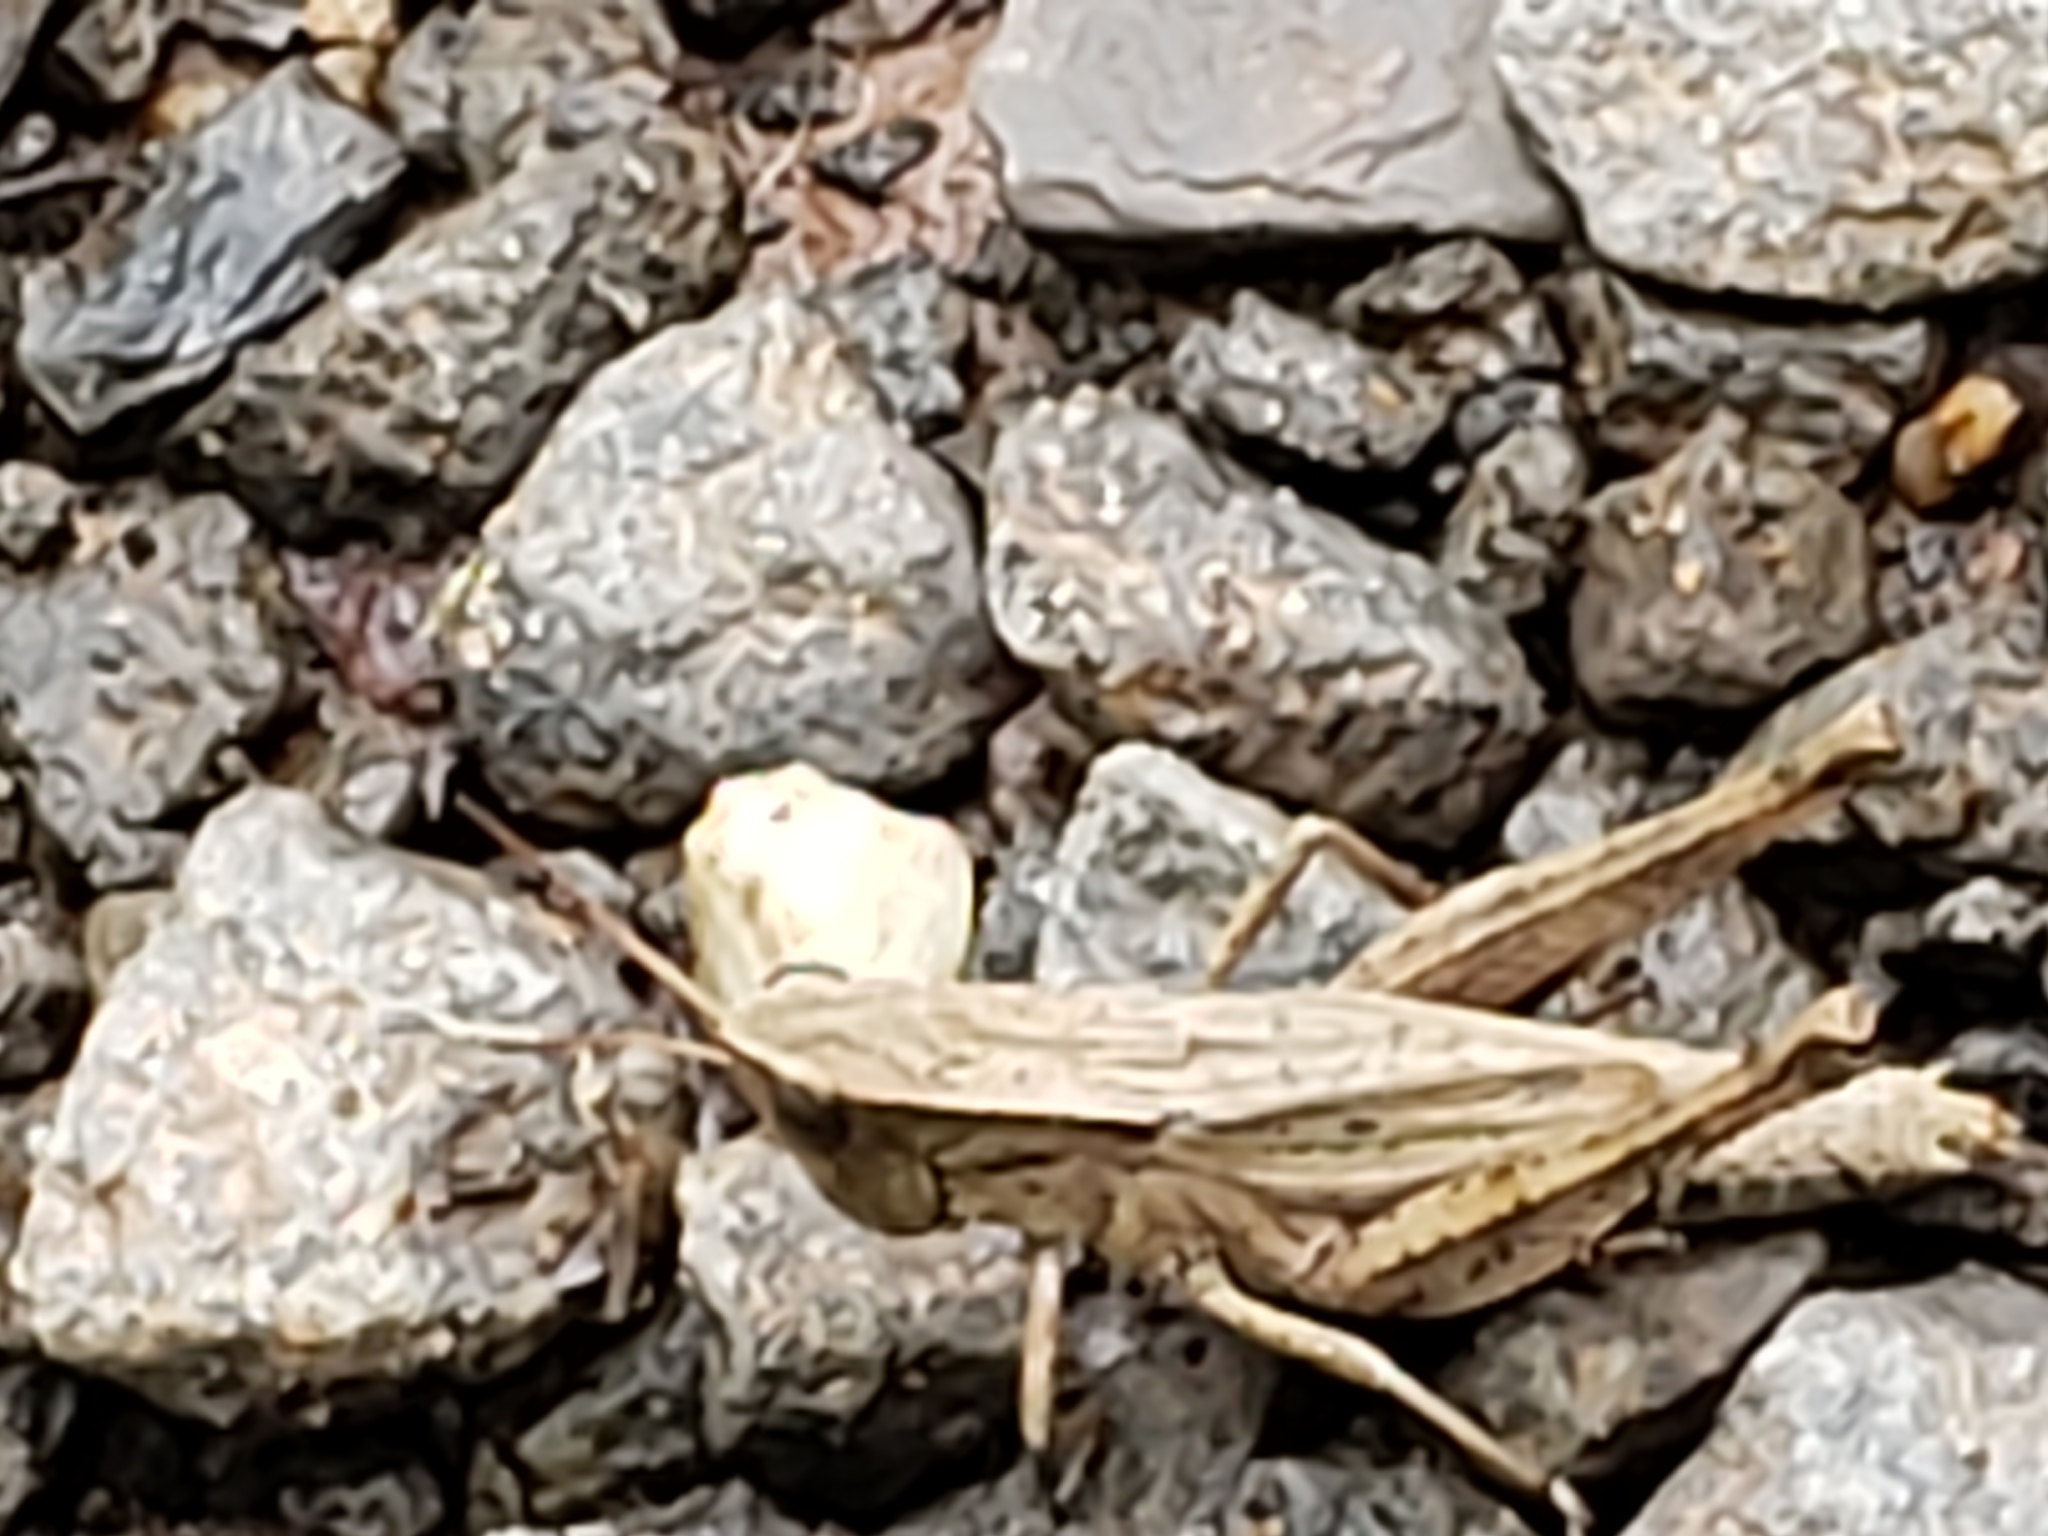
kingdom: Animalia
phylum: Arthropoda
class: Insecta
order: Orthoptera
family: Acrididae
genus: Dichromorpha
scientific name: Dichromorpha viridis
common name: Short-winged green grasshopper
